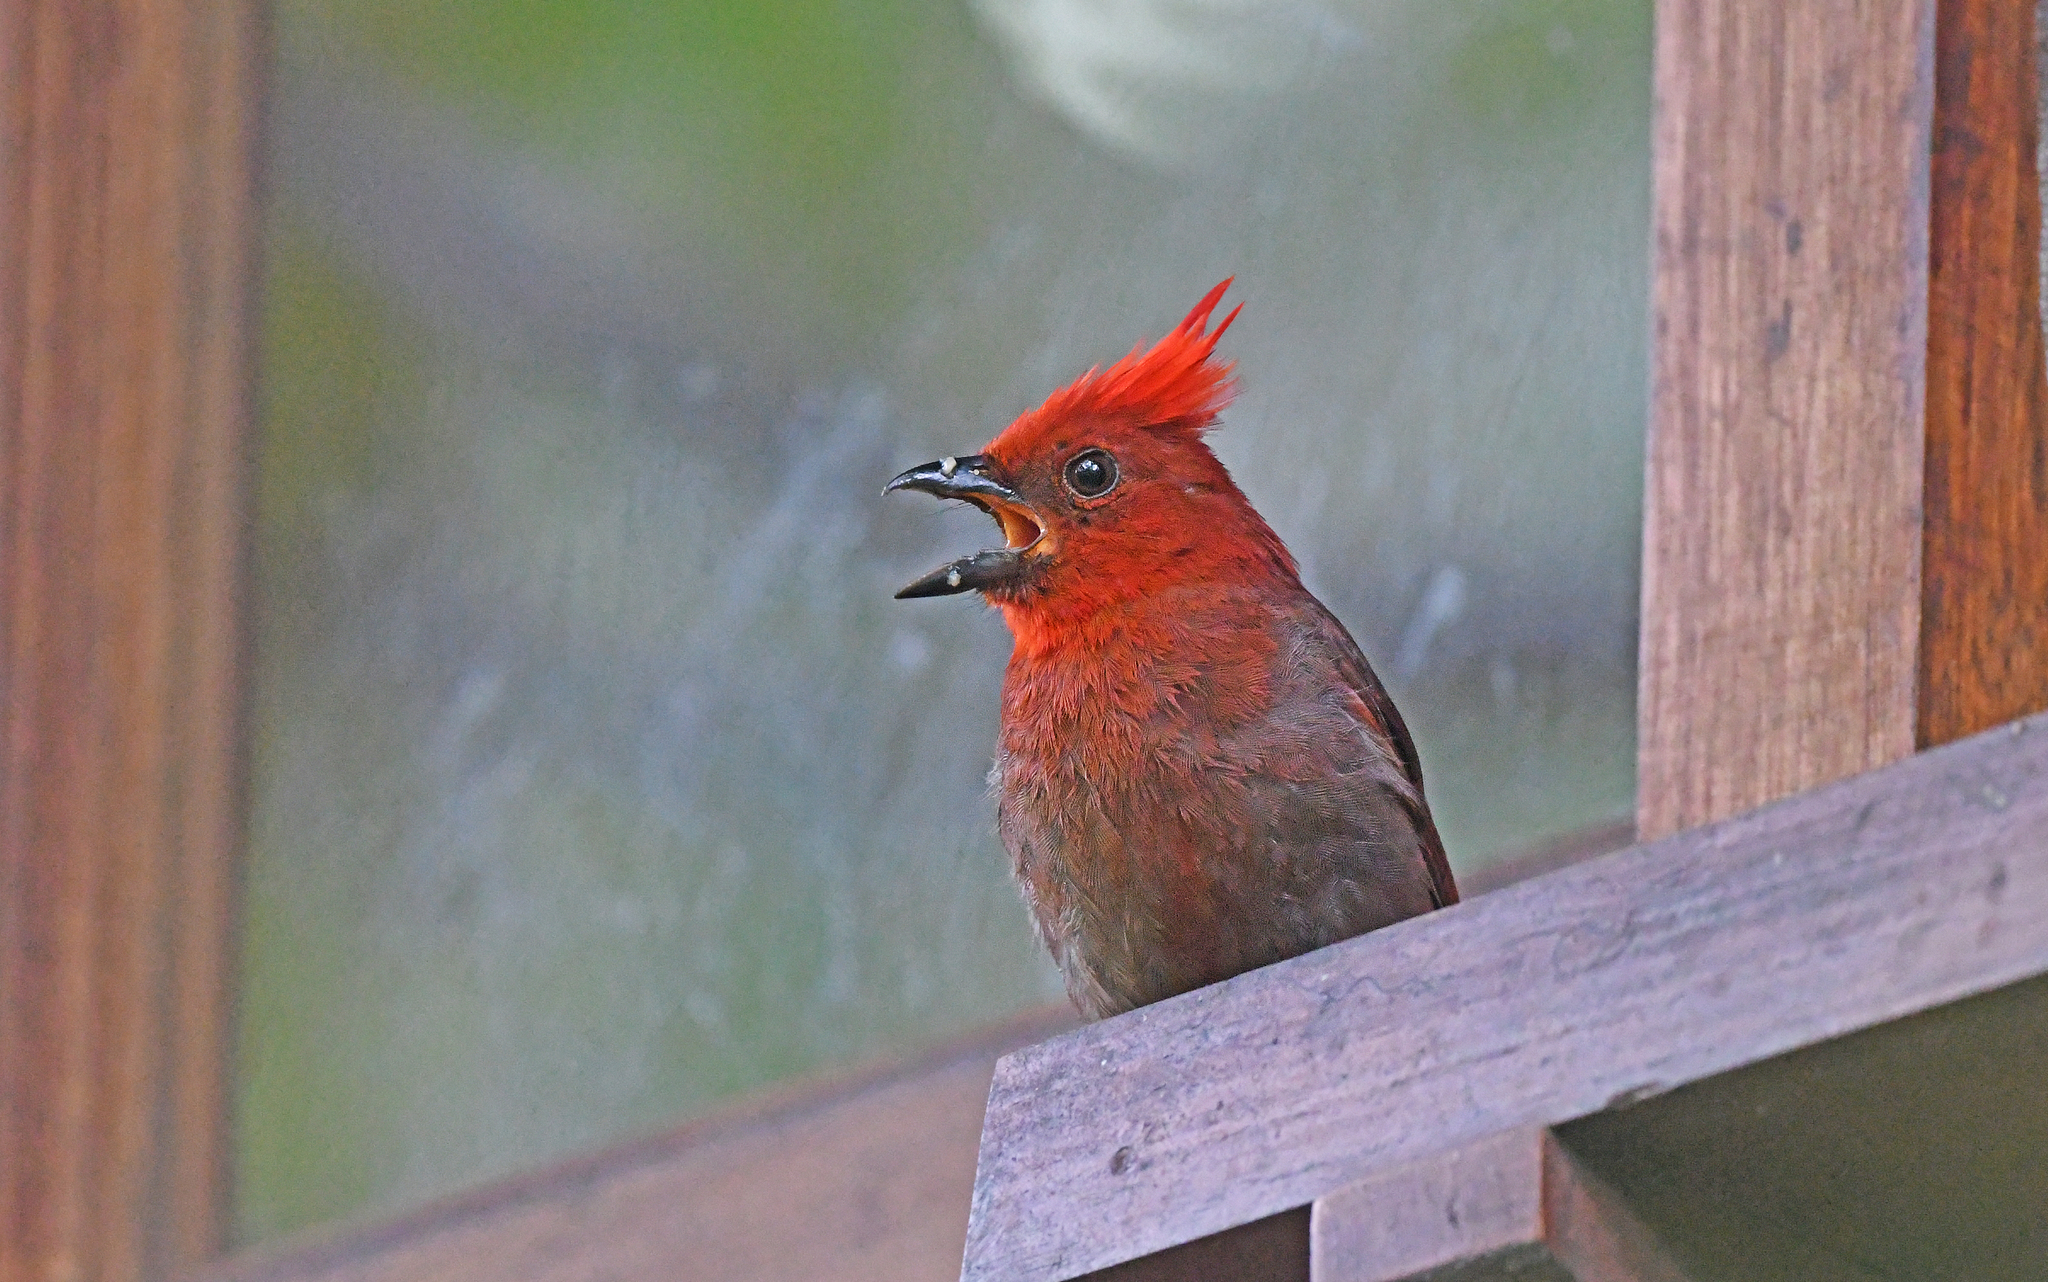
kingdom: Animalia
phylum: Chordata
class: Aves
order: Passeriformes
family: Cardinalidae
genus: Habia
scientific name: Habia cristata
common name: Crested ant tanager
